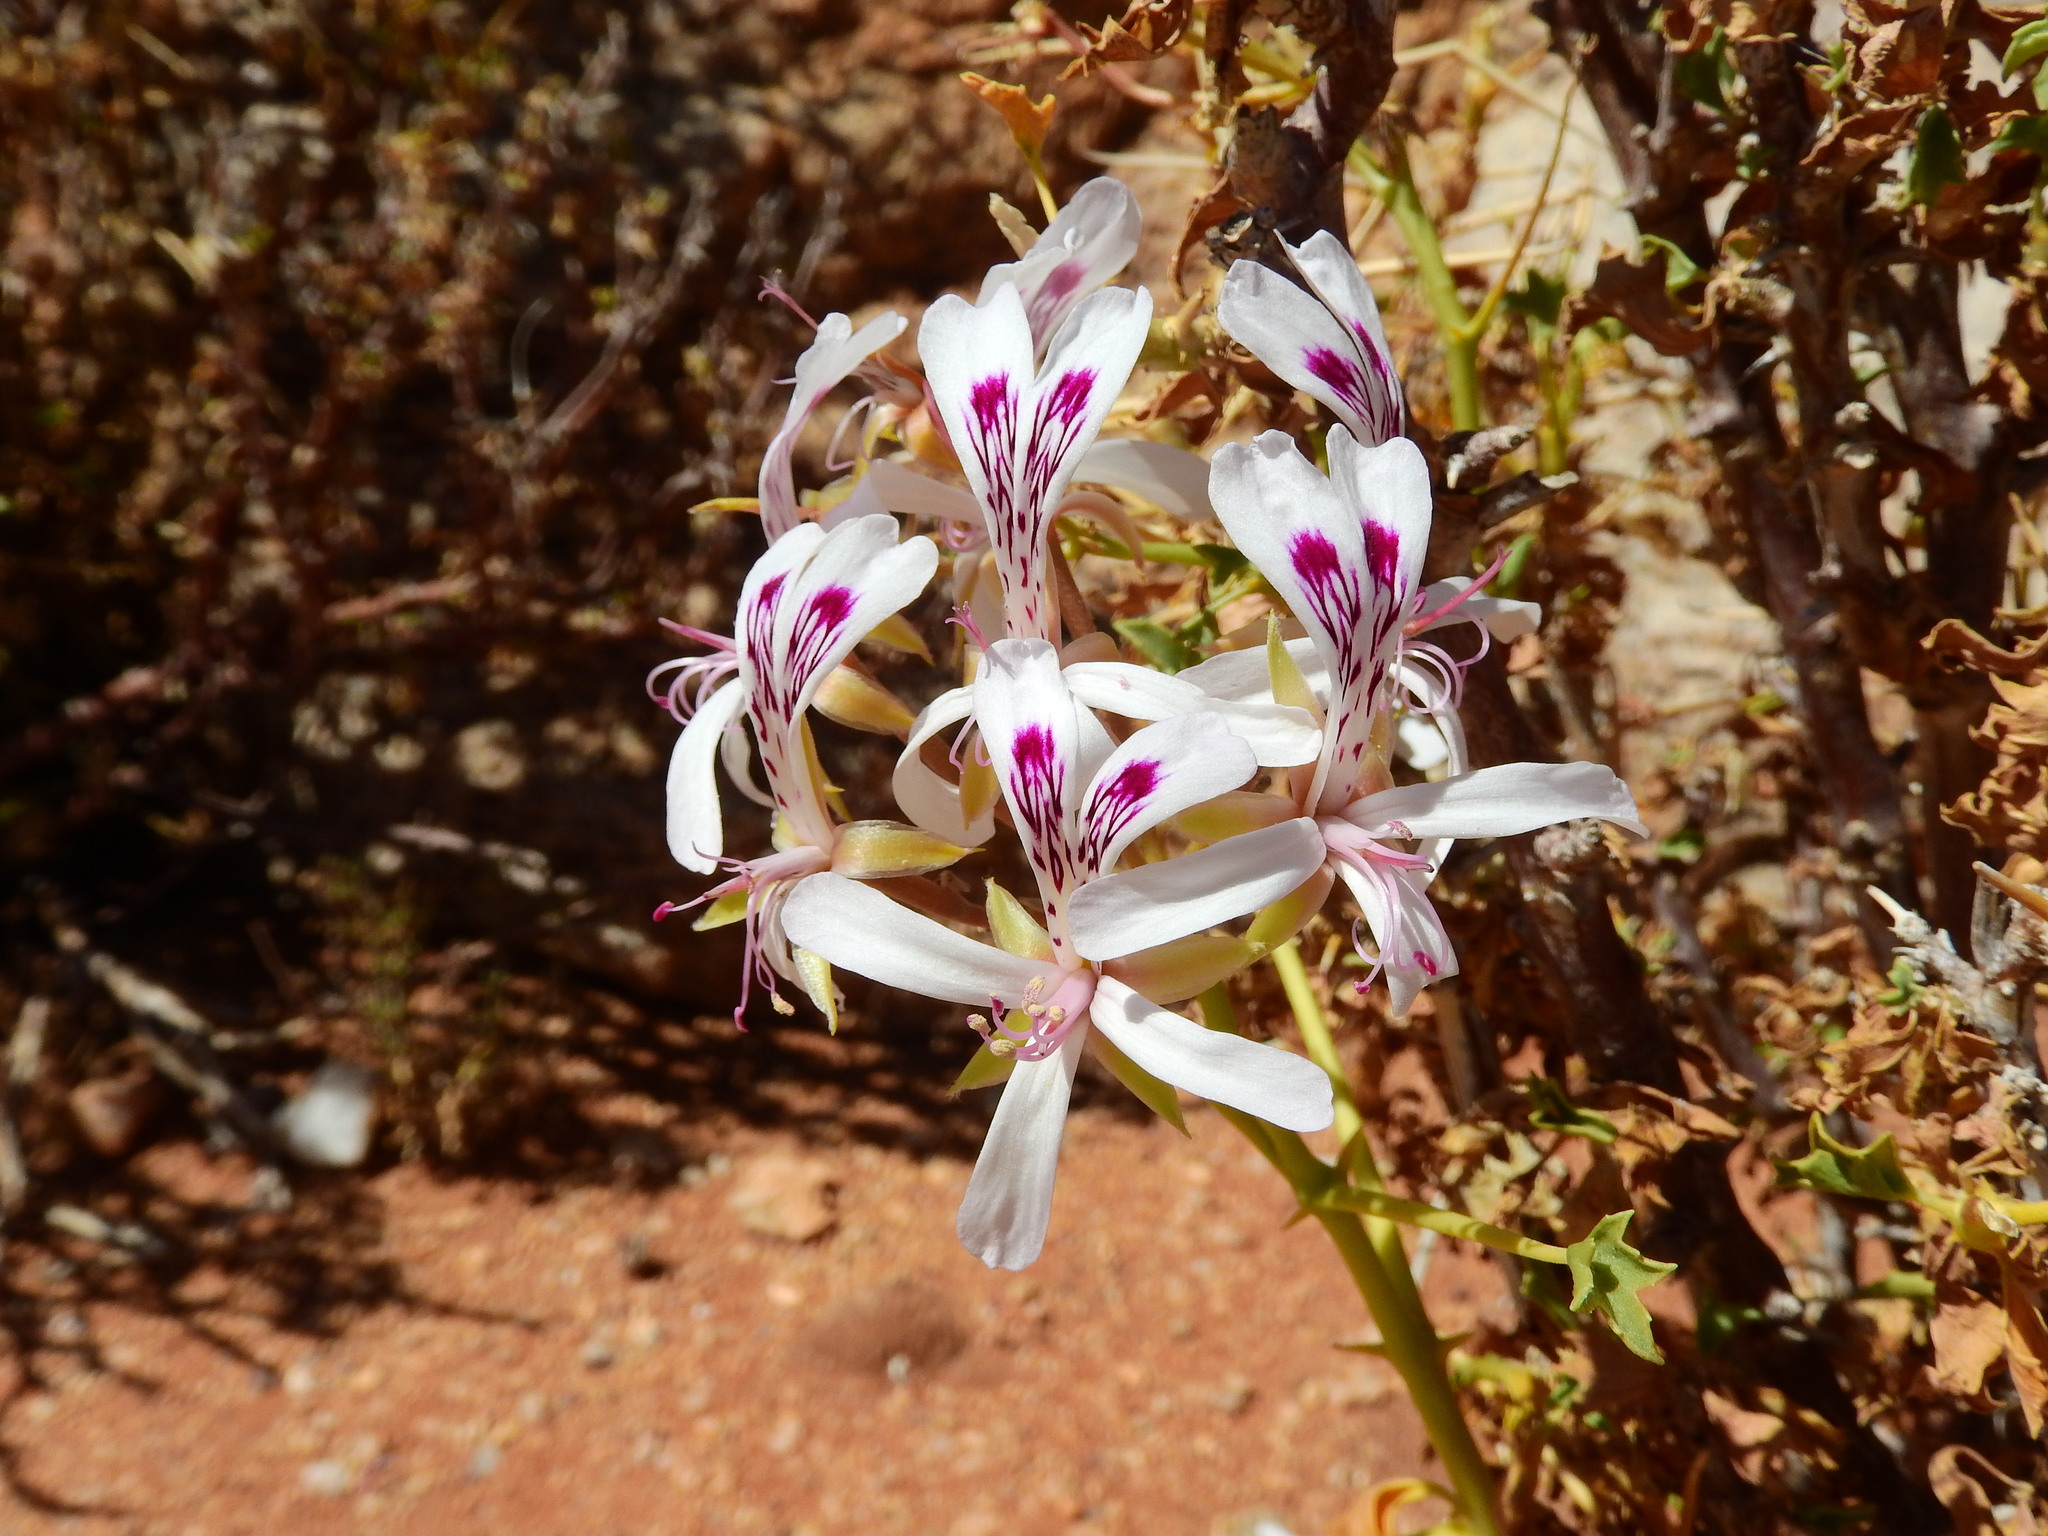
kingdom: Plantae
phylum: Tracheophyta
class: Magnoliopsida
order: Geraniales
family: Geraniaceae
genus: Pelargonium
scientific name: Pelargonium spinosum
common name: Thorny pelargonium
